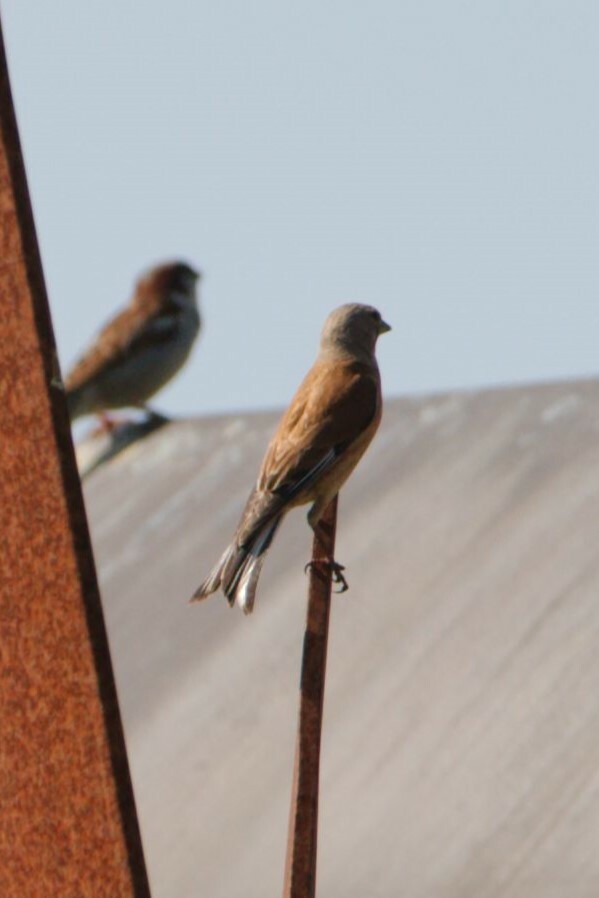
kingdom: Animalia
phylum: Chordata
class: Aves
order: Passeriformes
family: Fringillidae
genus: Linaria
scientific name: Linaria cannabina
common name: Common linnet
